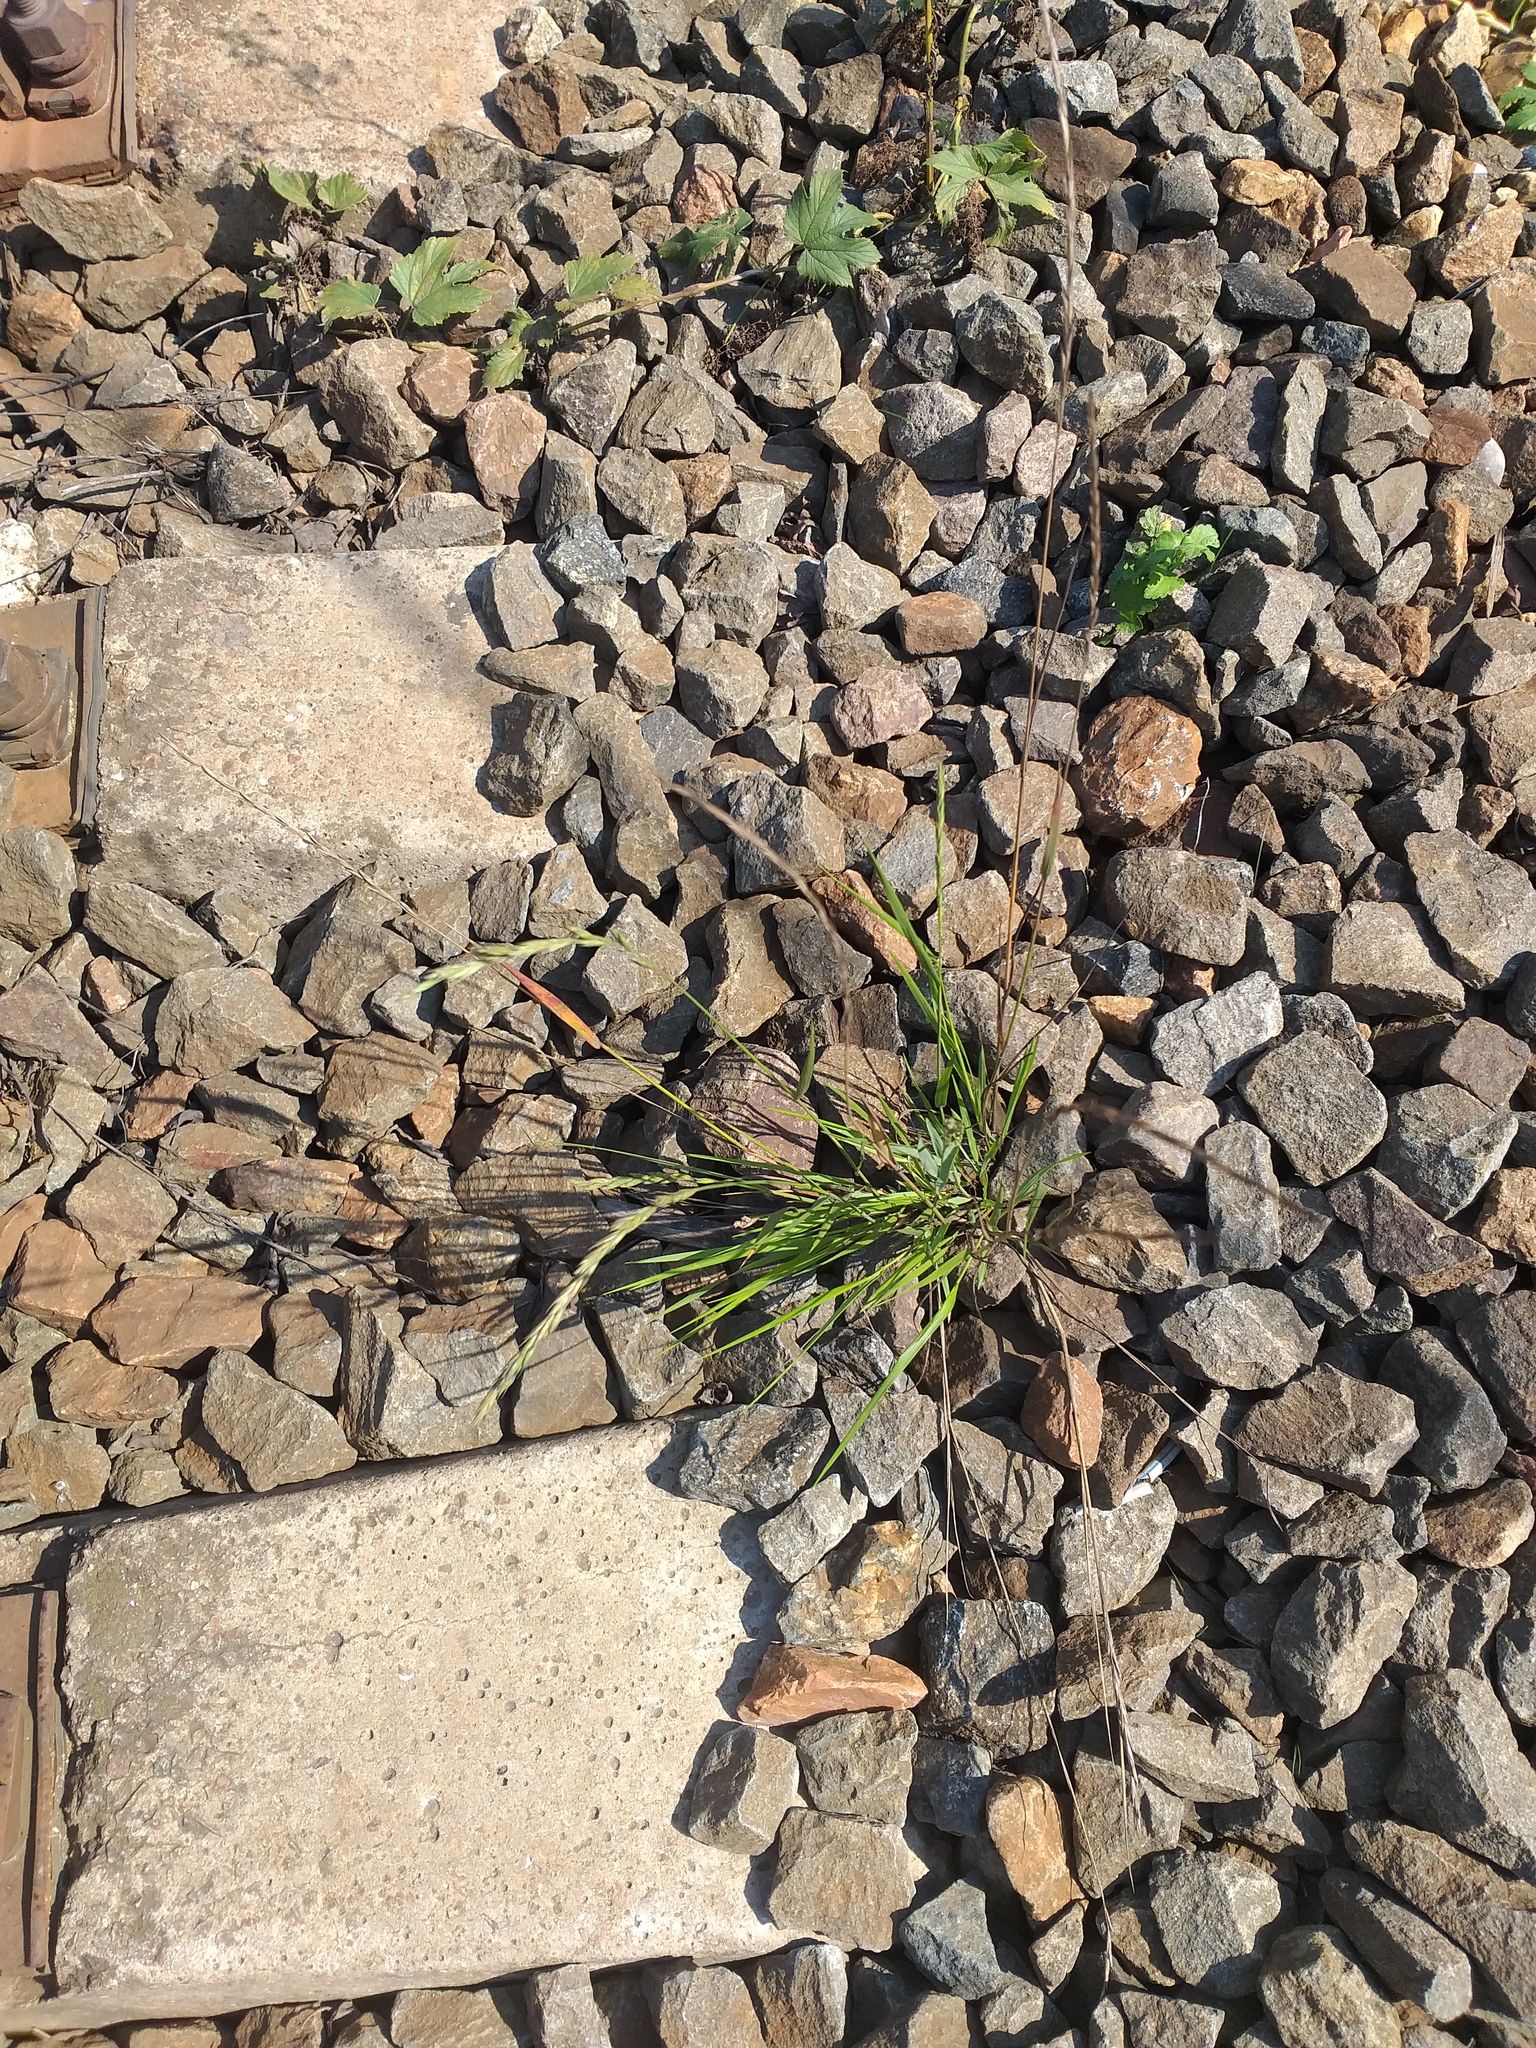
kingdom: Plantae
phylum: Tracheophyta
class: Liliopsida
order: Poales
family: Poaceae
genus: Elymus
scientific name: Elymus fibrosus
